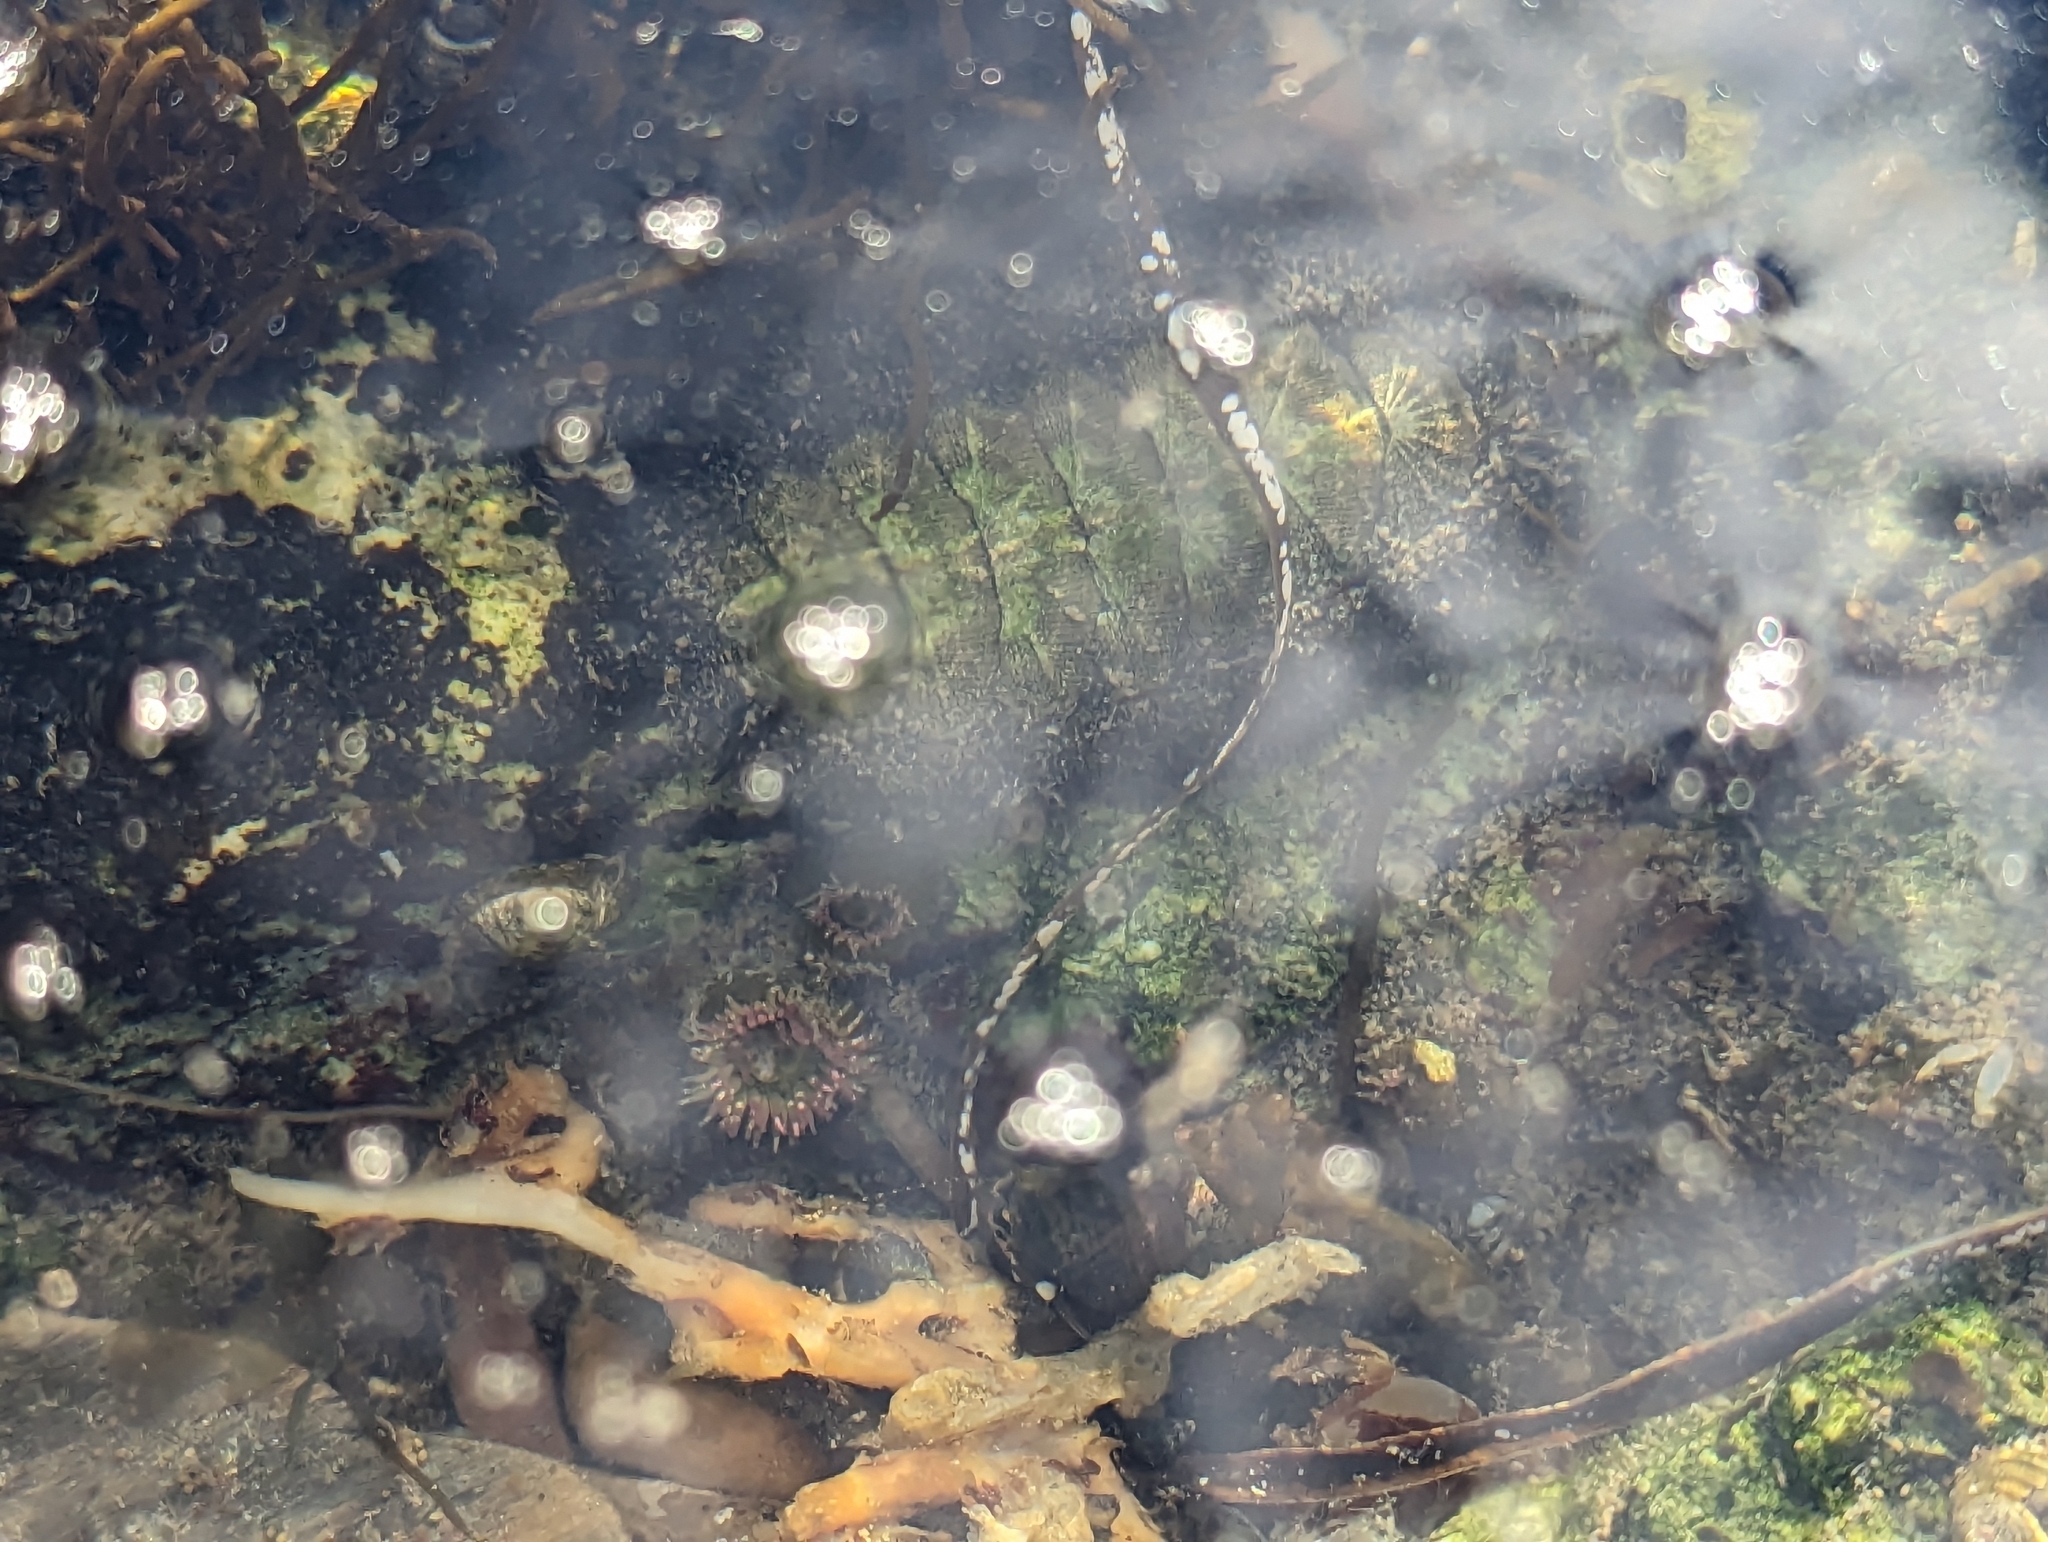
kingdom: Animalia
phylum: Mollusca
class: Polyplacophora
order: Chitonida
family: Mopaliidae
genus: Mopalia
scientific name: Mopalia muscosa
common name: Mossy chiton
